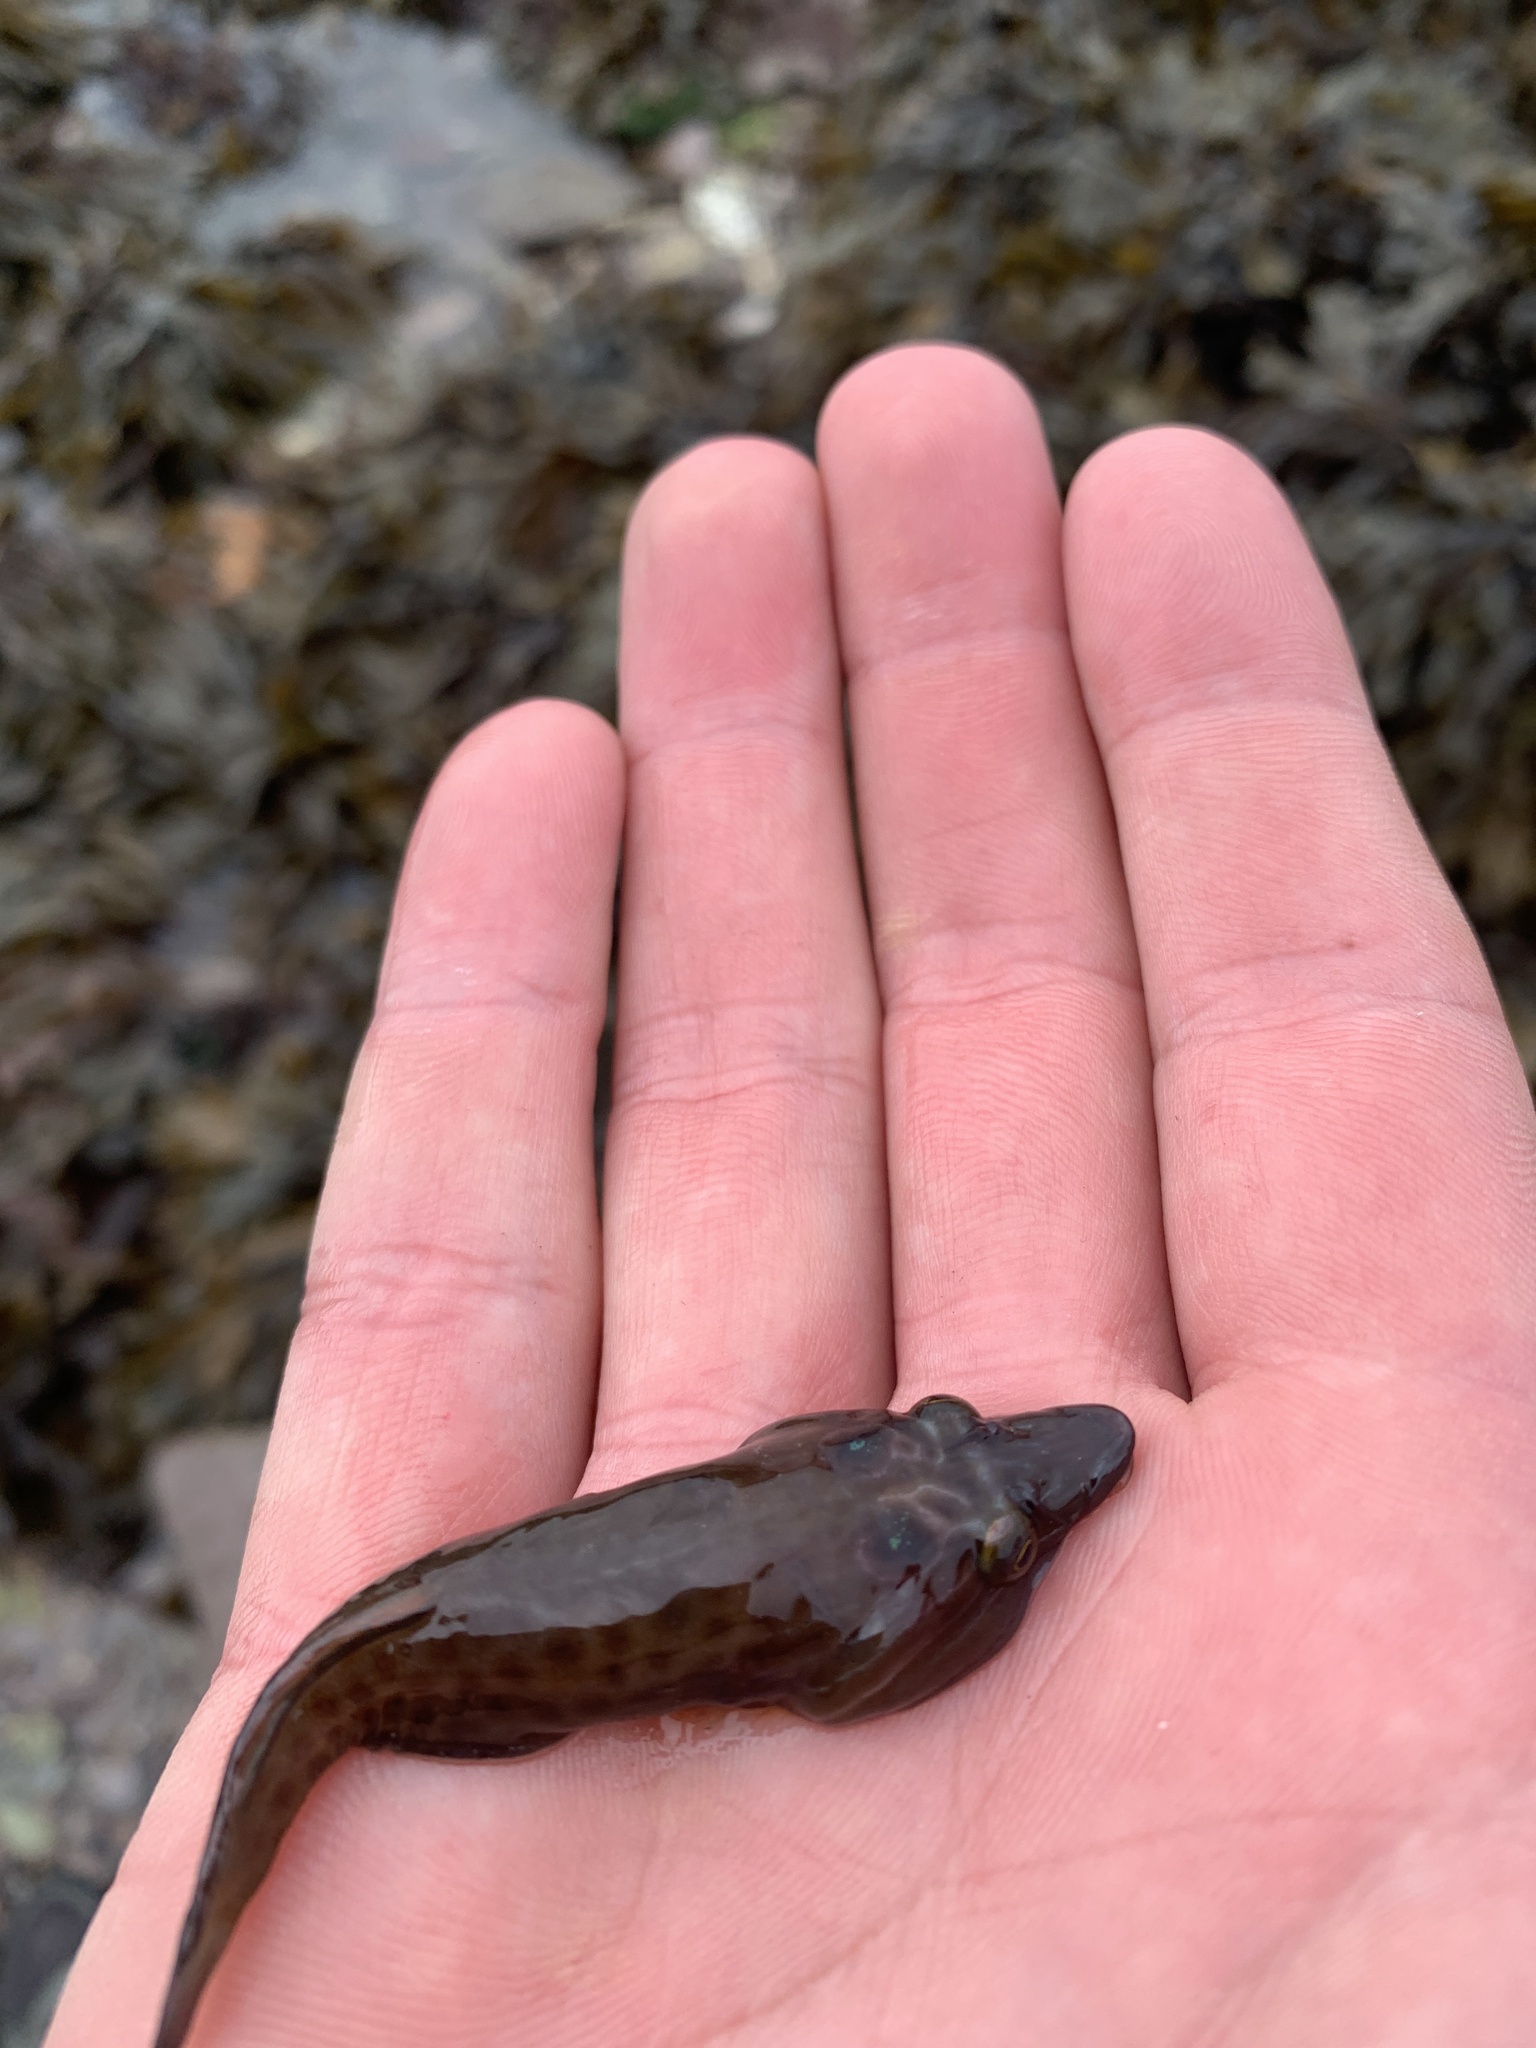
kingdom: Animalia
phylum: Chordata
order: Gobiesociformes
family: Gobiesocidae
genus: Lepadogaster
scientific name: Lepadogaster purpurea
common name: Cornish sucker
